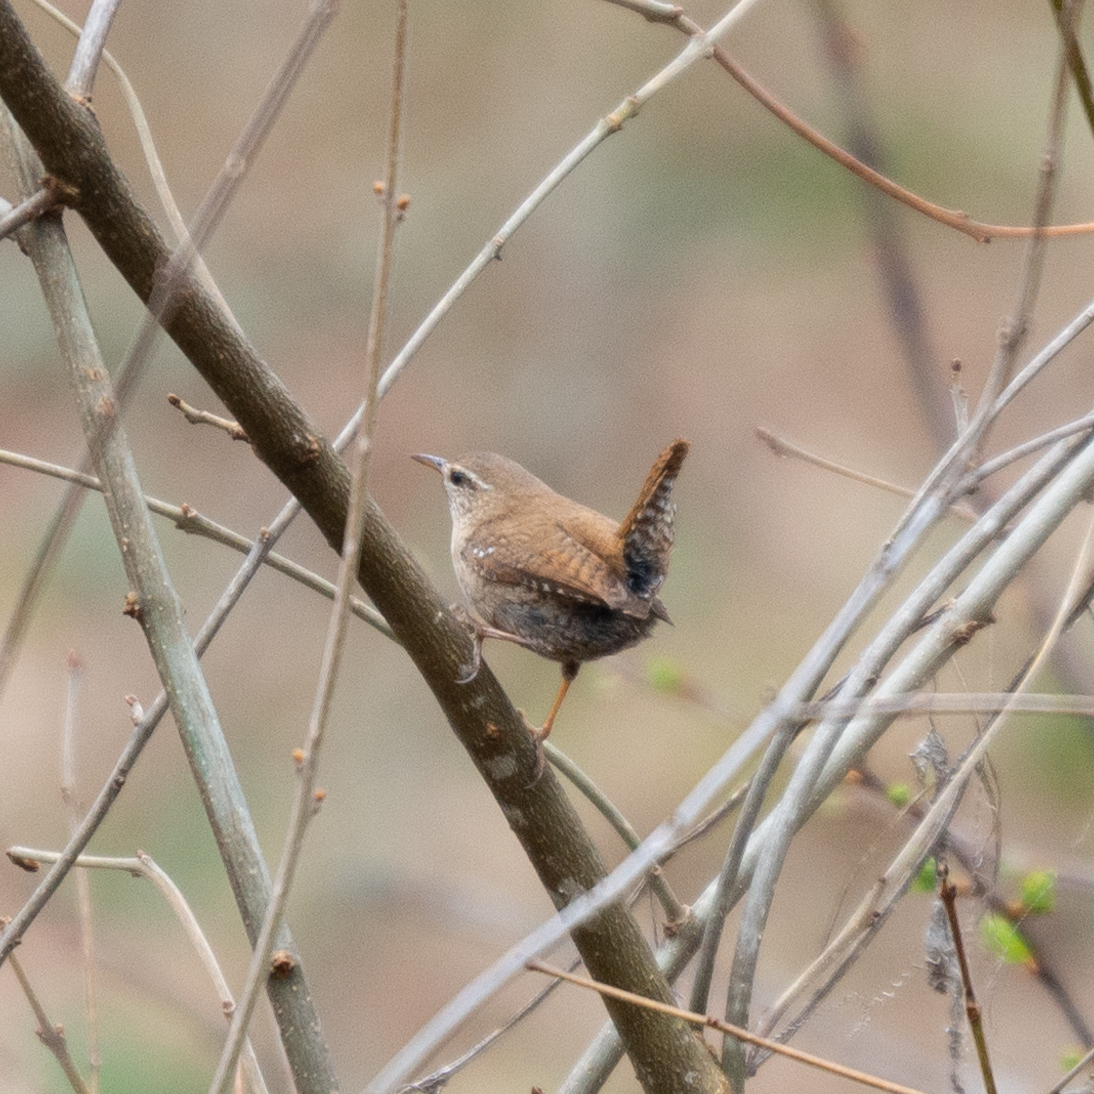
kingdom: Animalia
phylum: Chordata
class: Aves
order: Passeriformes
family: Troglodytidae
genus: Troglodytes
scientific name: Troglodytes troglodytes
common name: Eurasian wren
